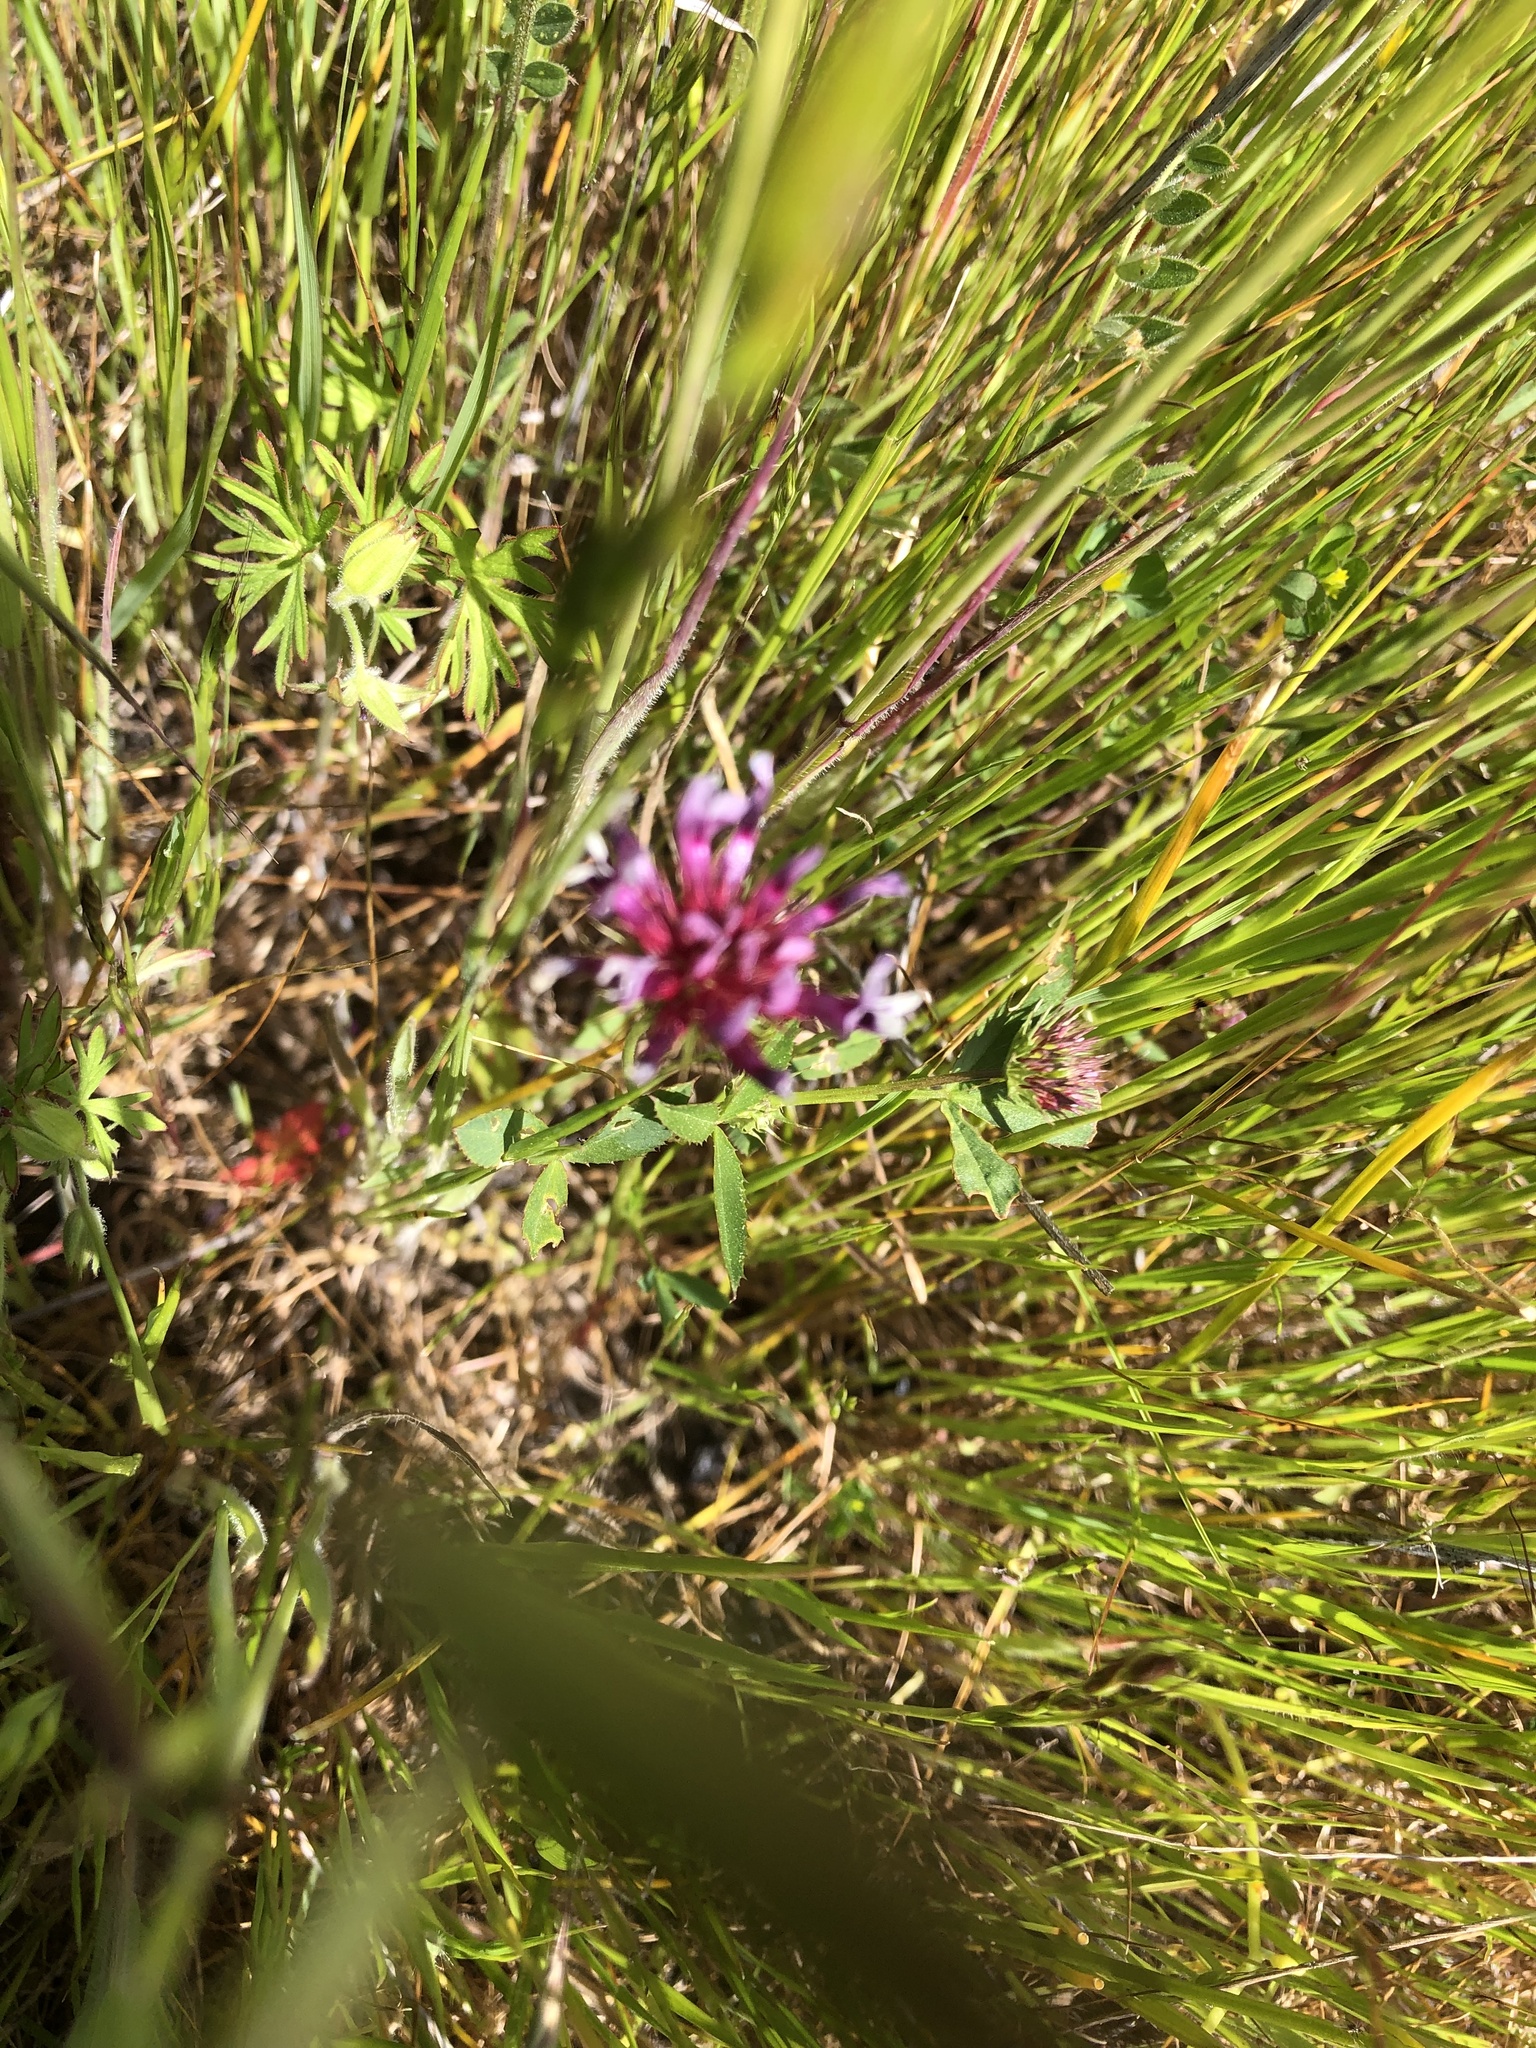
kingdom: Plantae
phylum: Tracheophyta
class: Magnoliopsida
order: Fabales
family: Fabaceae
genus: Trifolium
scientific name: Trifolium willdenovii
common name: Tomcat clover
